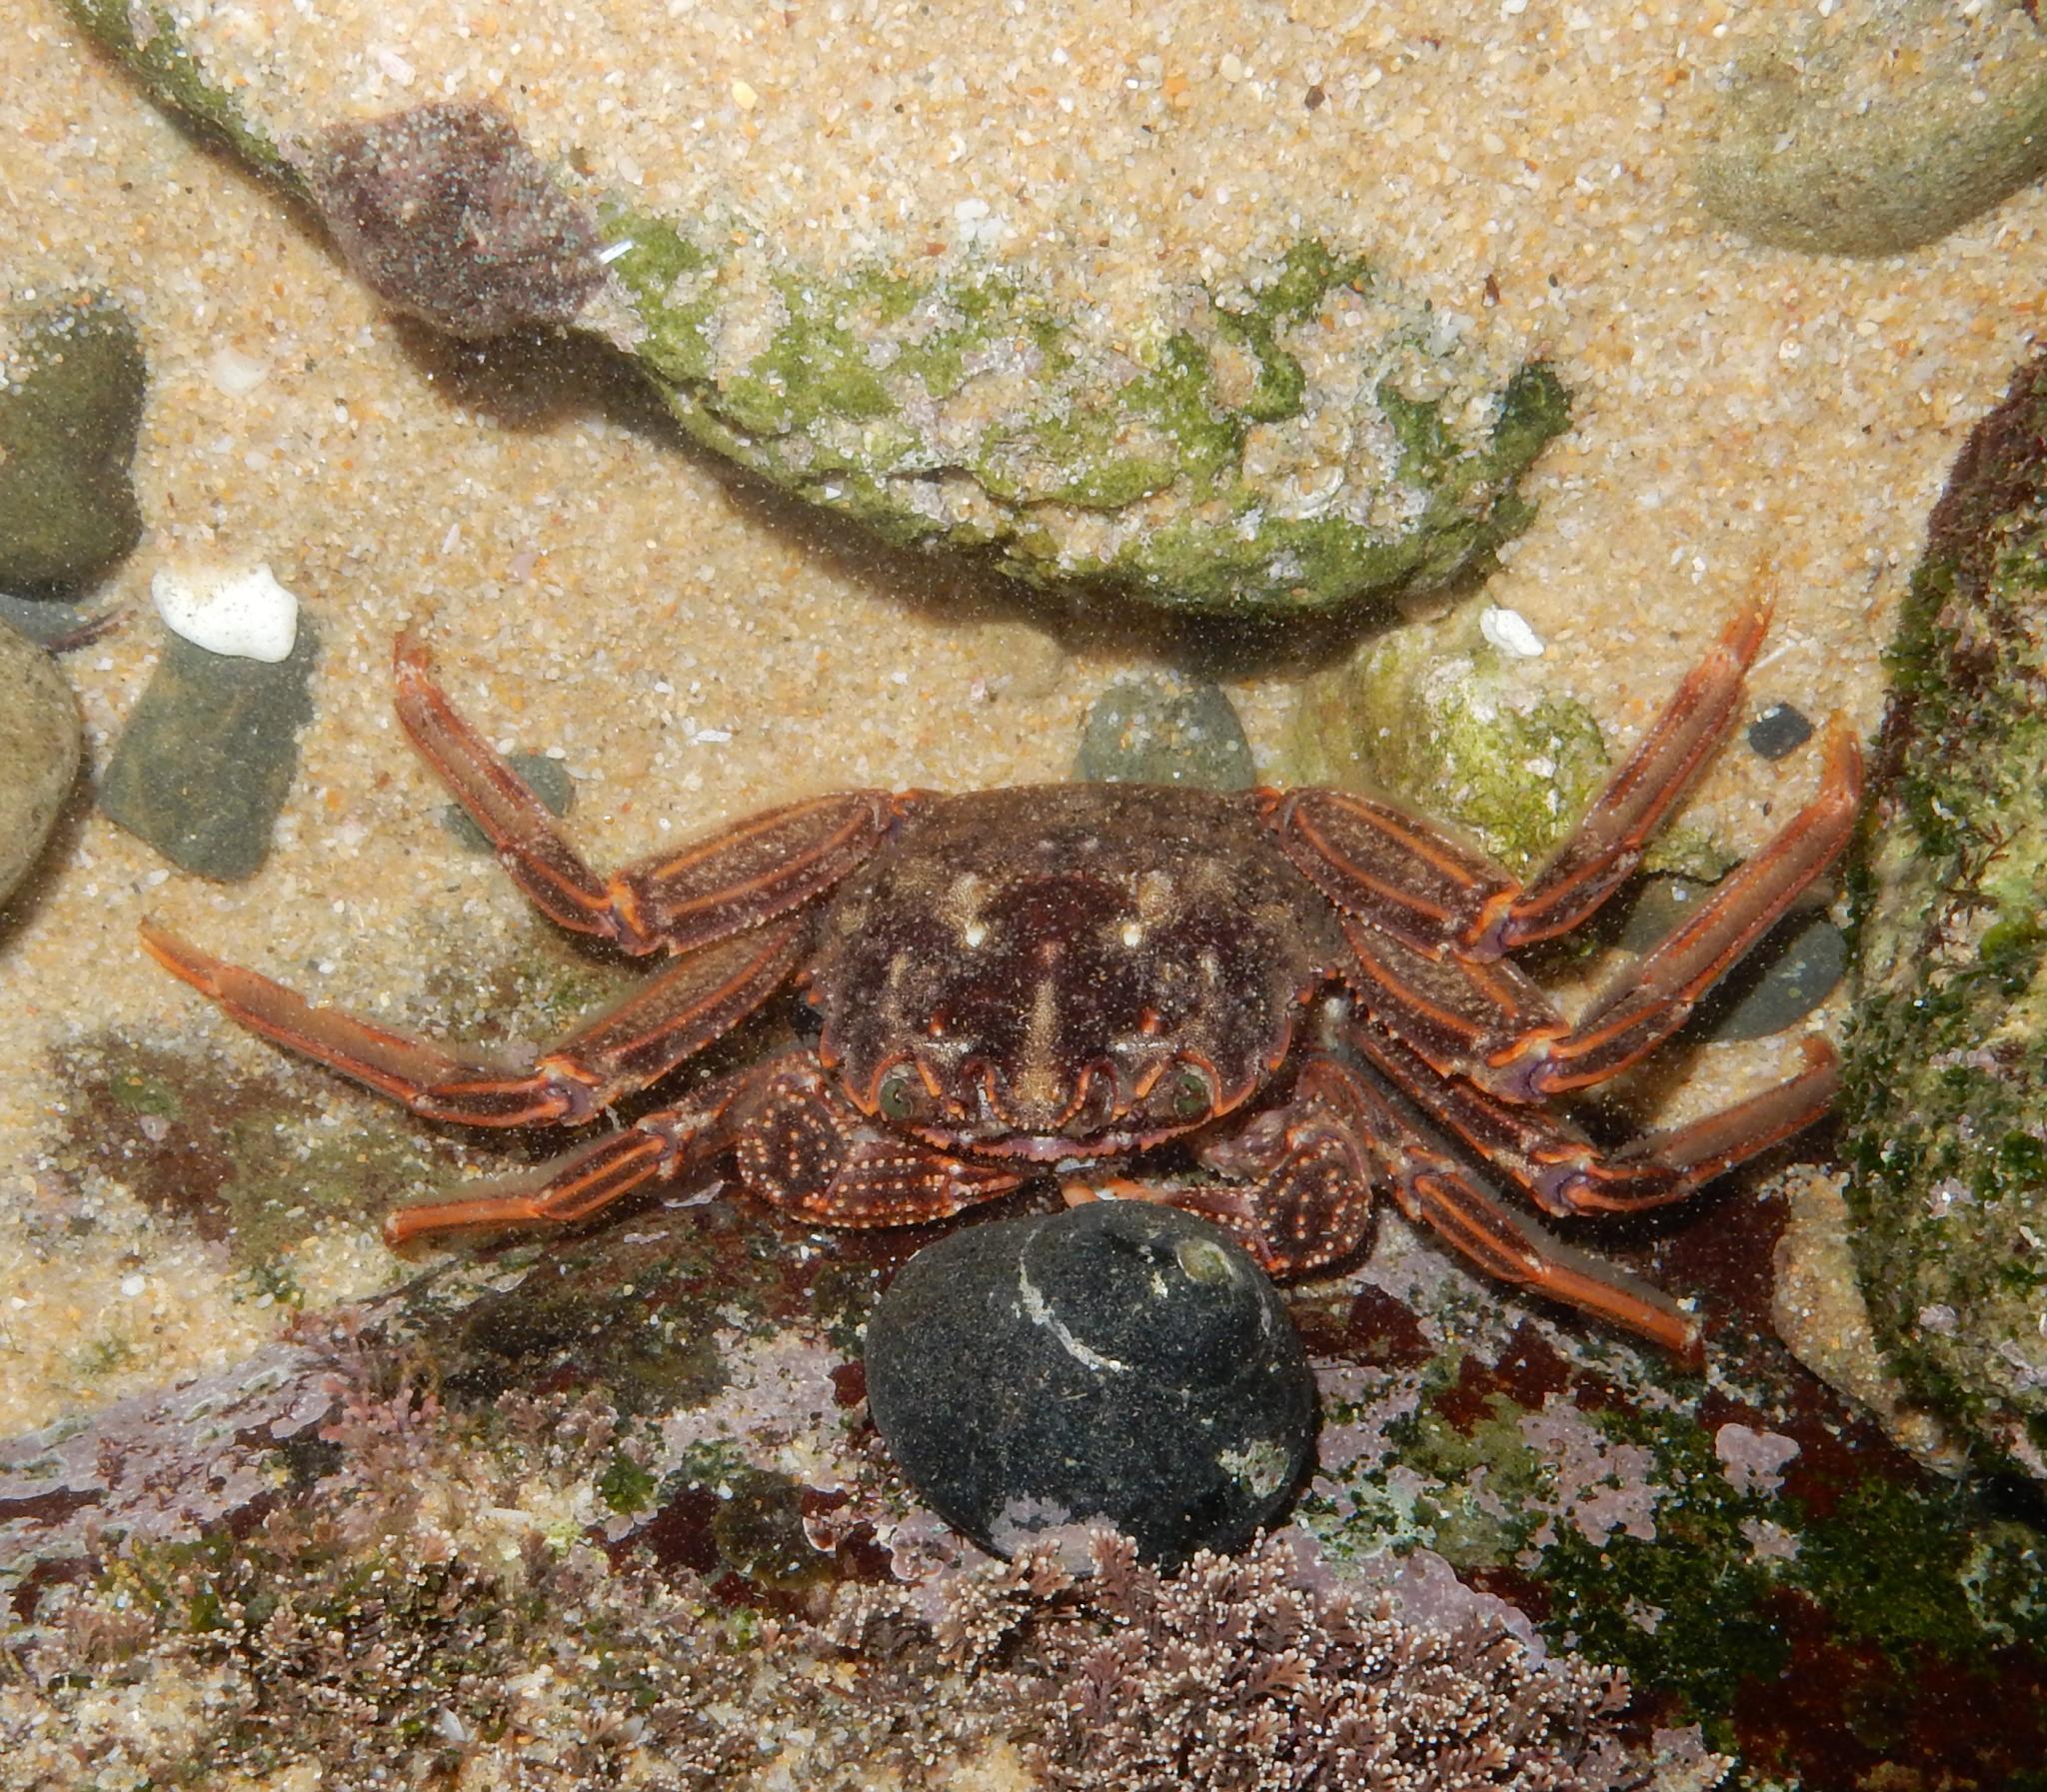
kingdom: Animalia
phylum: Arthropoda
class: Malacostraca
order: Decapoda
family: Plagusiidae
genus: Guinusia
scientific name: Guinusia chabrus
